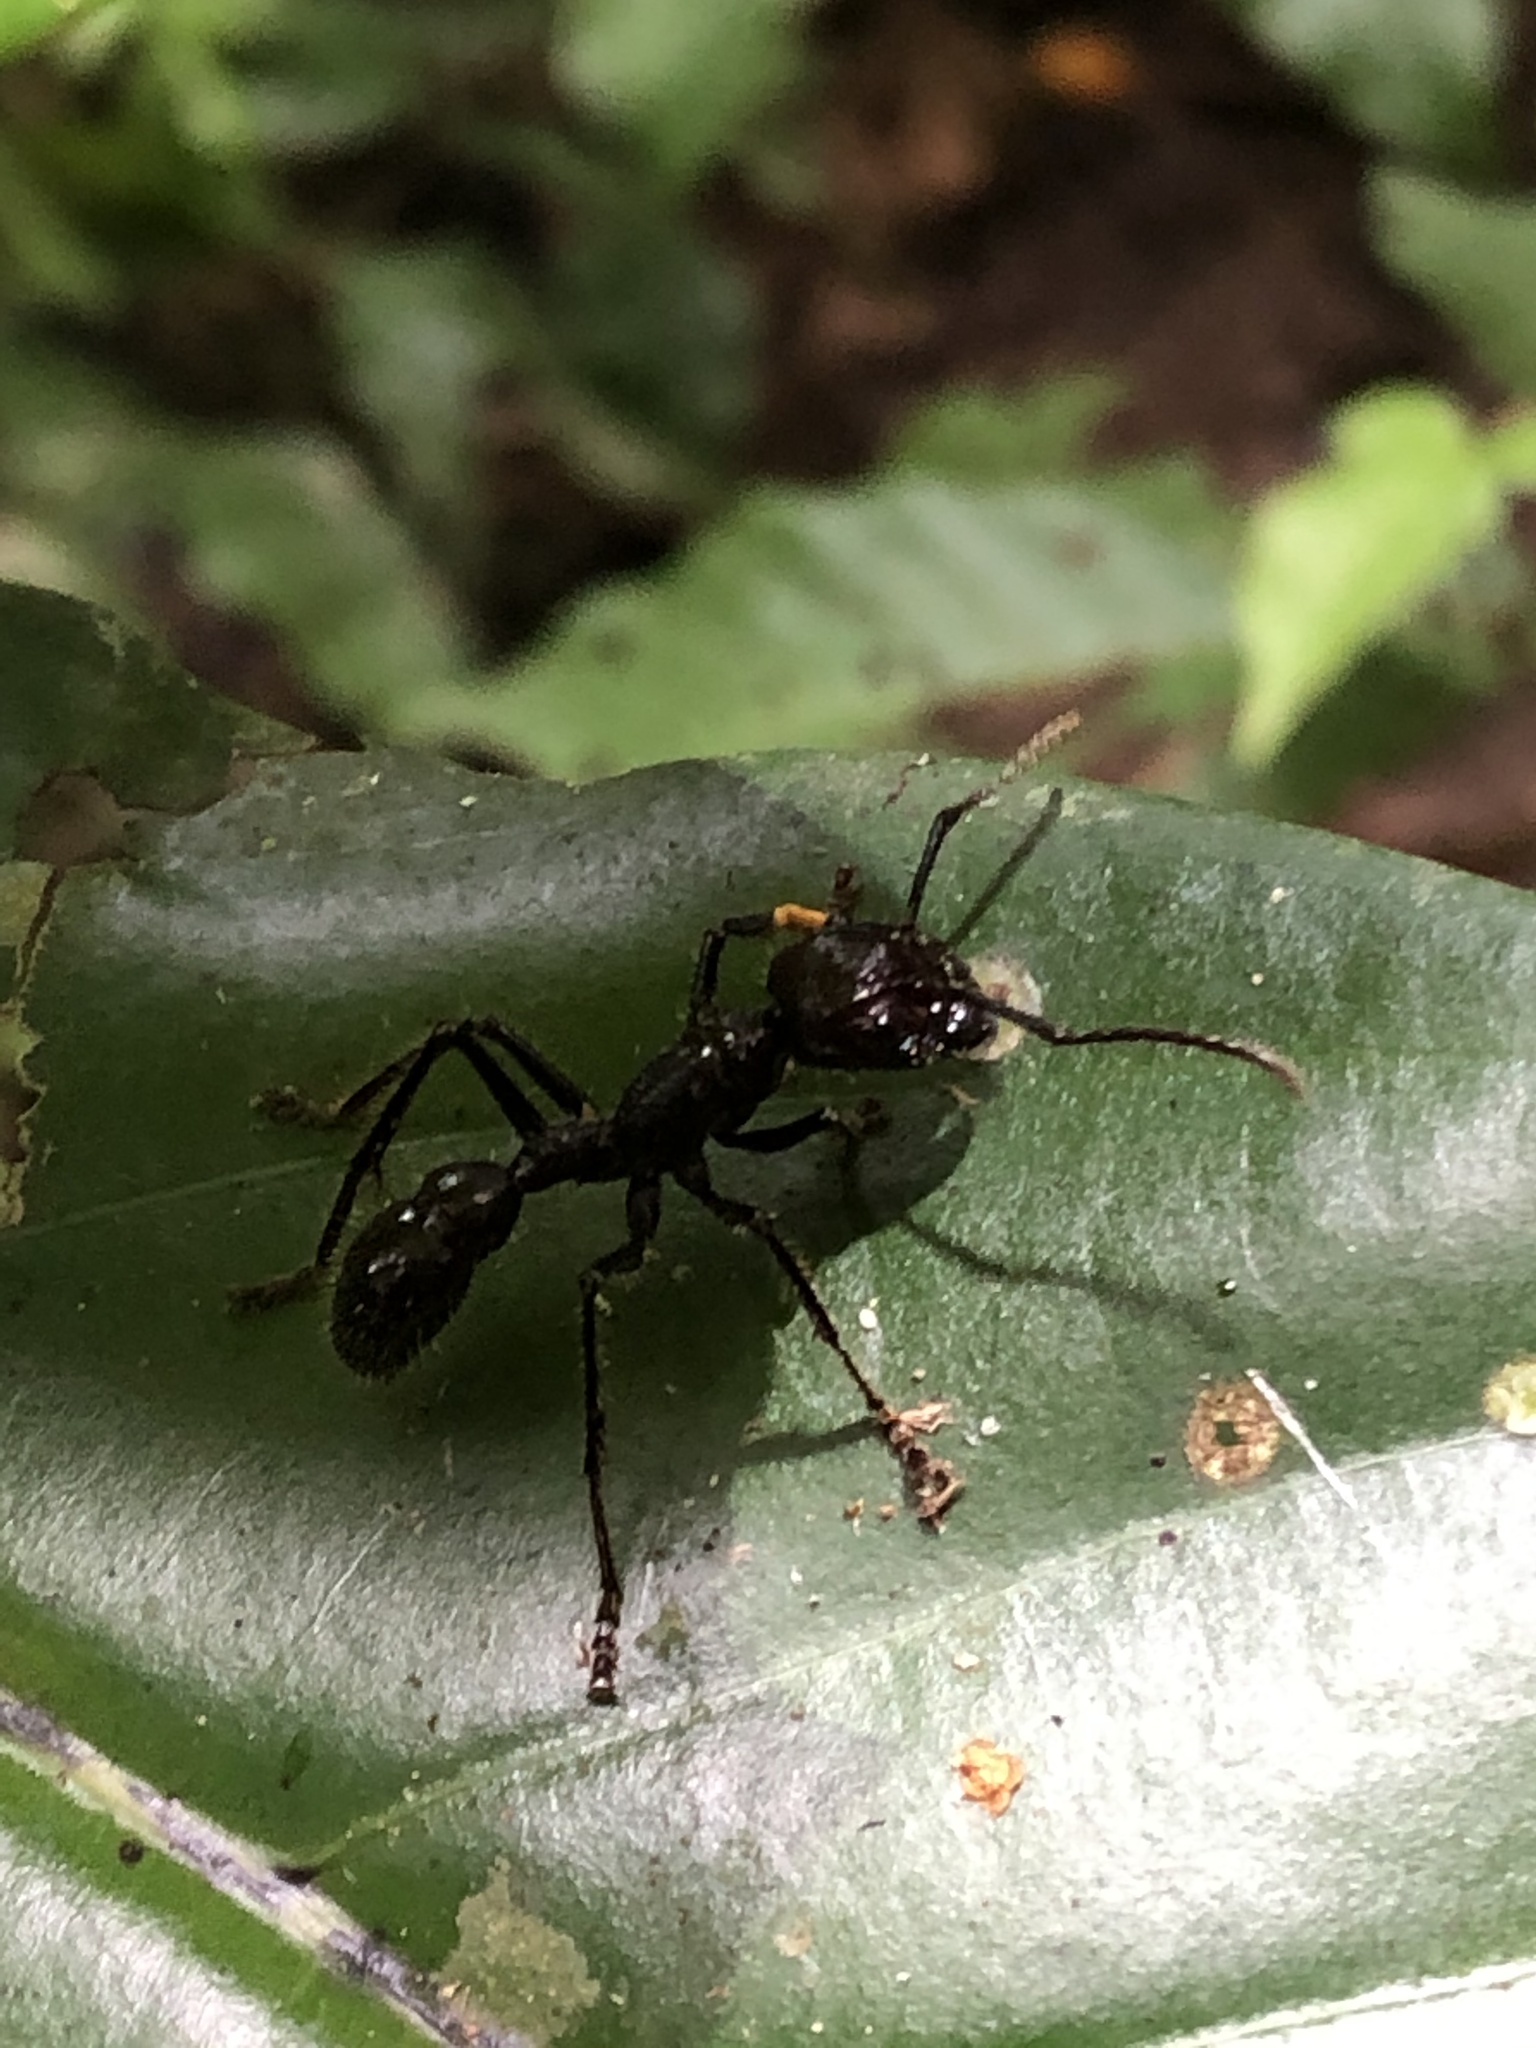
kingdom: Animalia
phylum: Arthropoda
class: Insecta
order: Hymenoptera
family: Formicidae
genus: Paraponera
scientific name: Paraponera clavata
